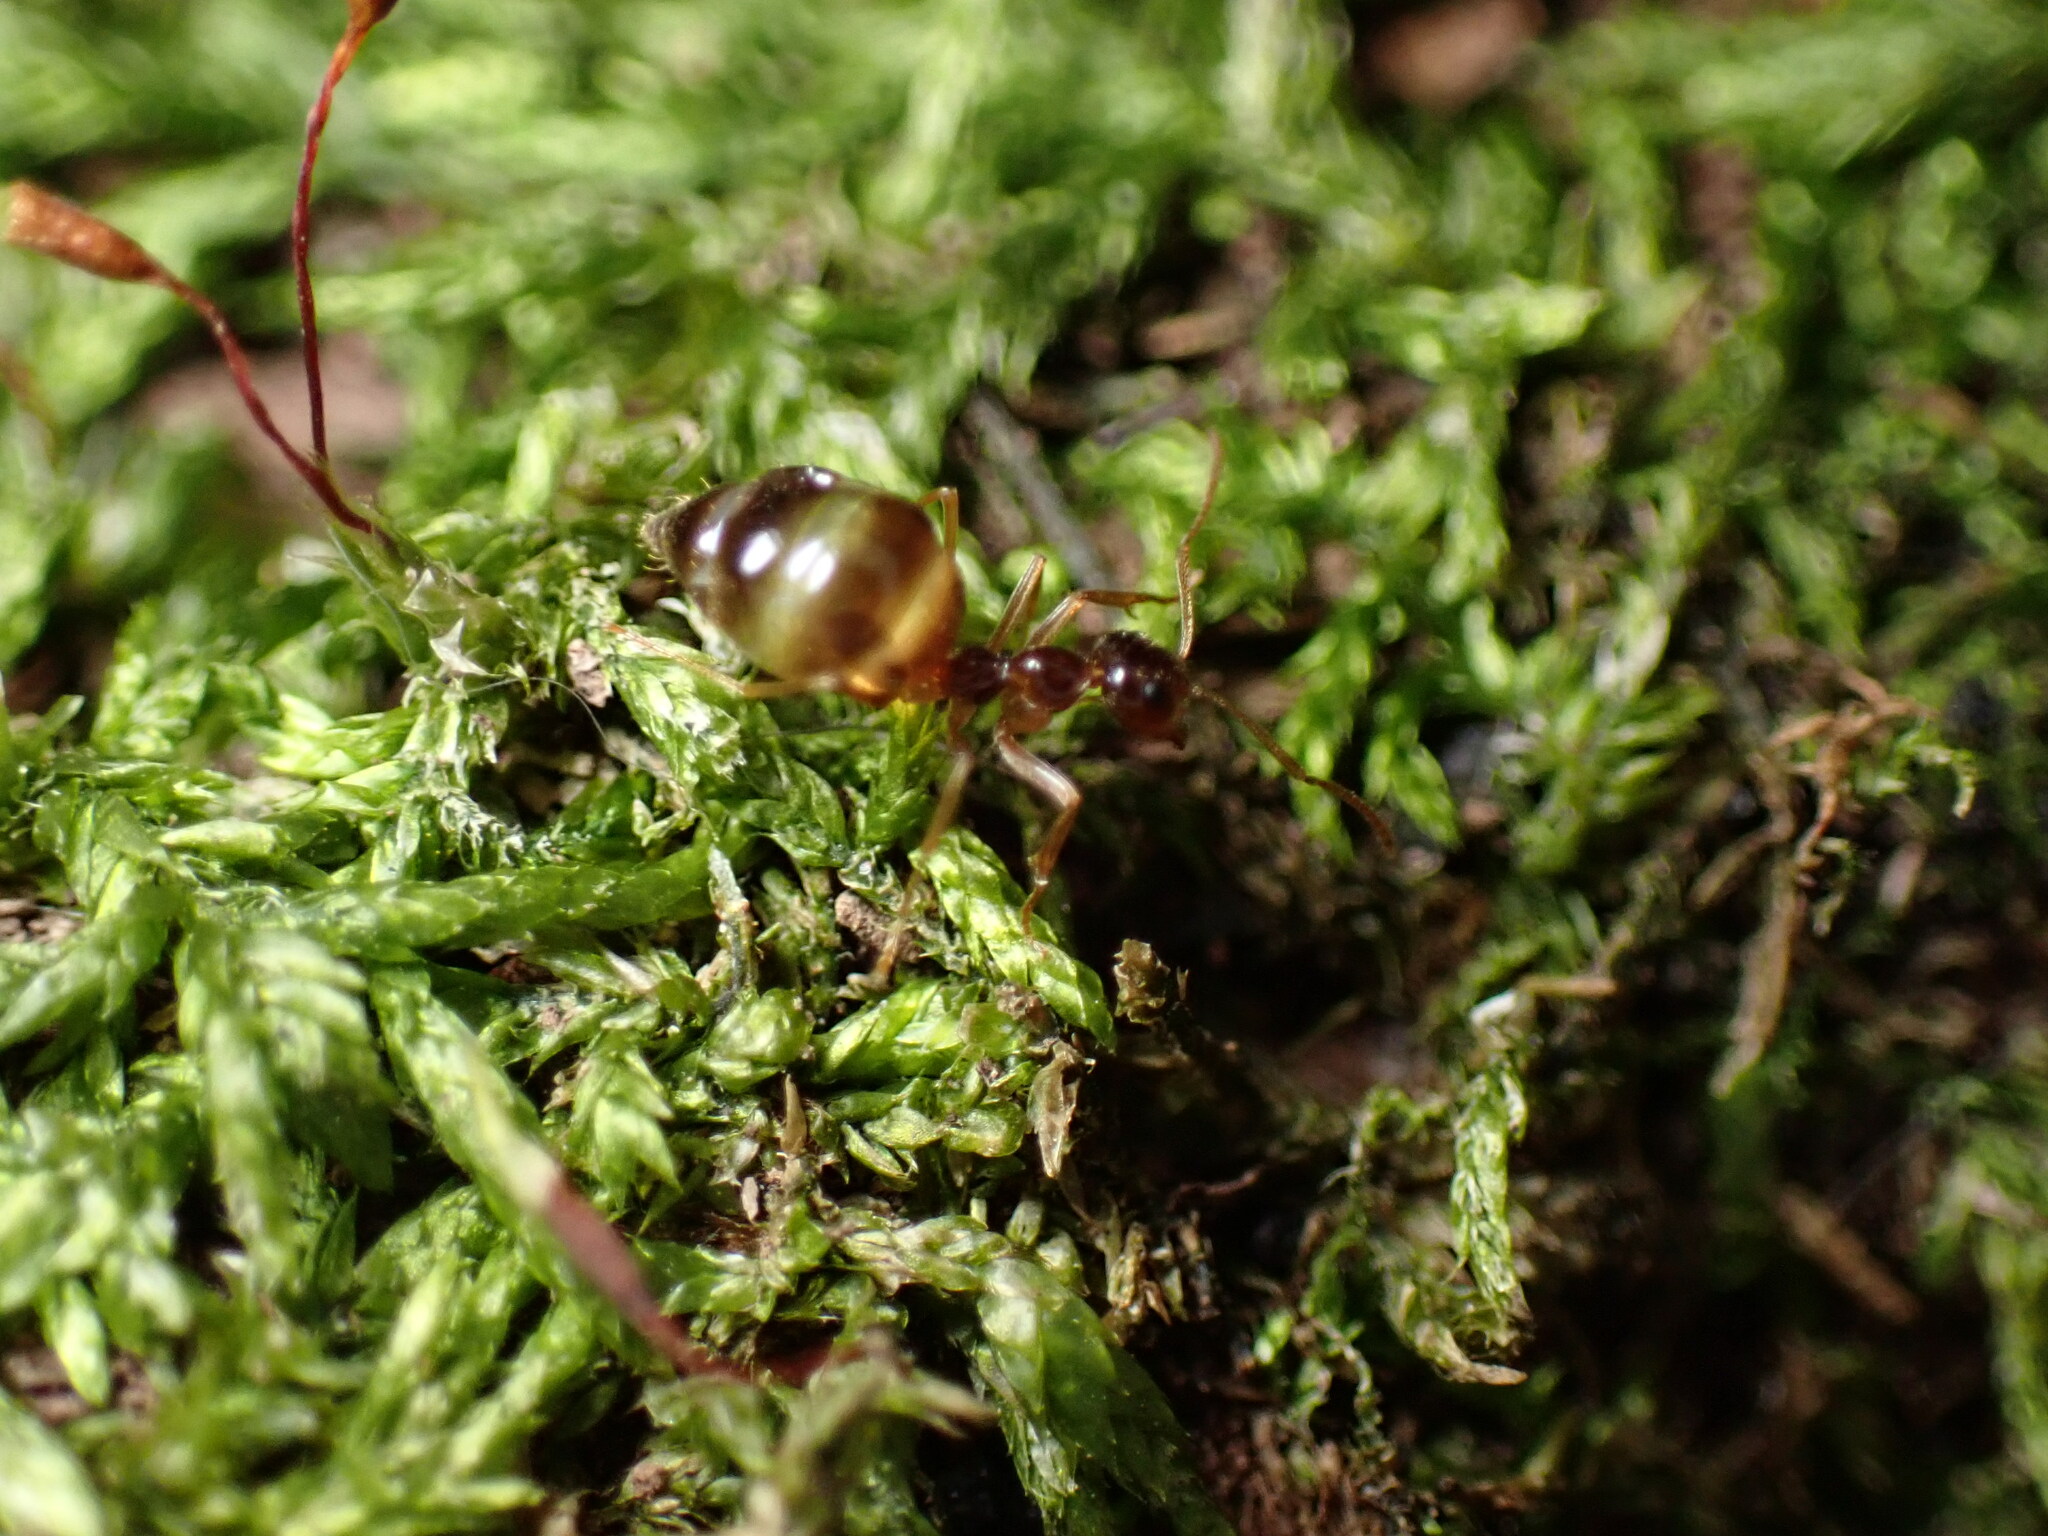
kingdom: Animalia
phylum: Arthropoda
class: Insecta
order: Hymenoptera
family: Formicidae
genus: Prenolepis
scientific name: Prenolepis imparis
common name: Small honey ant
